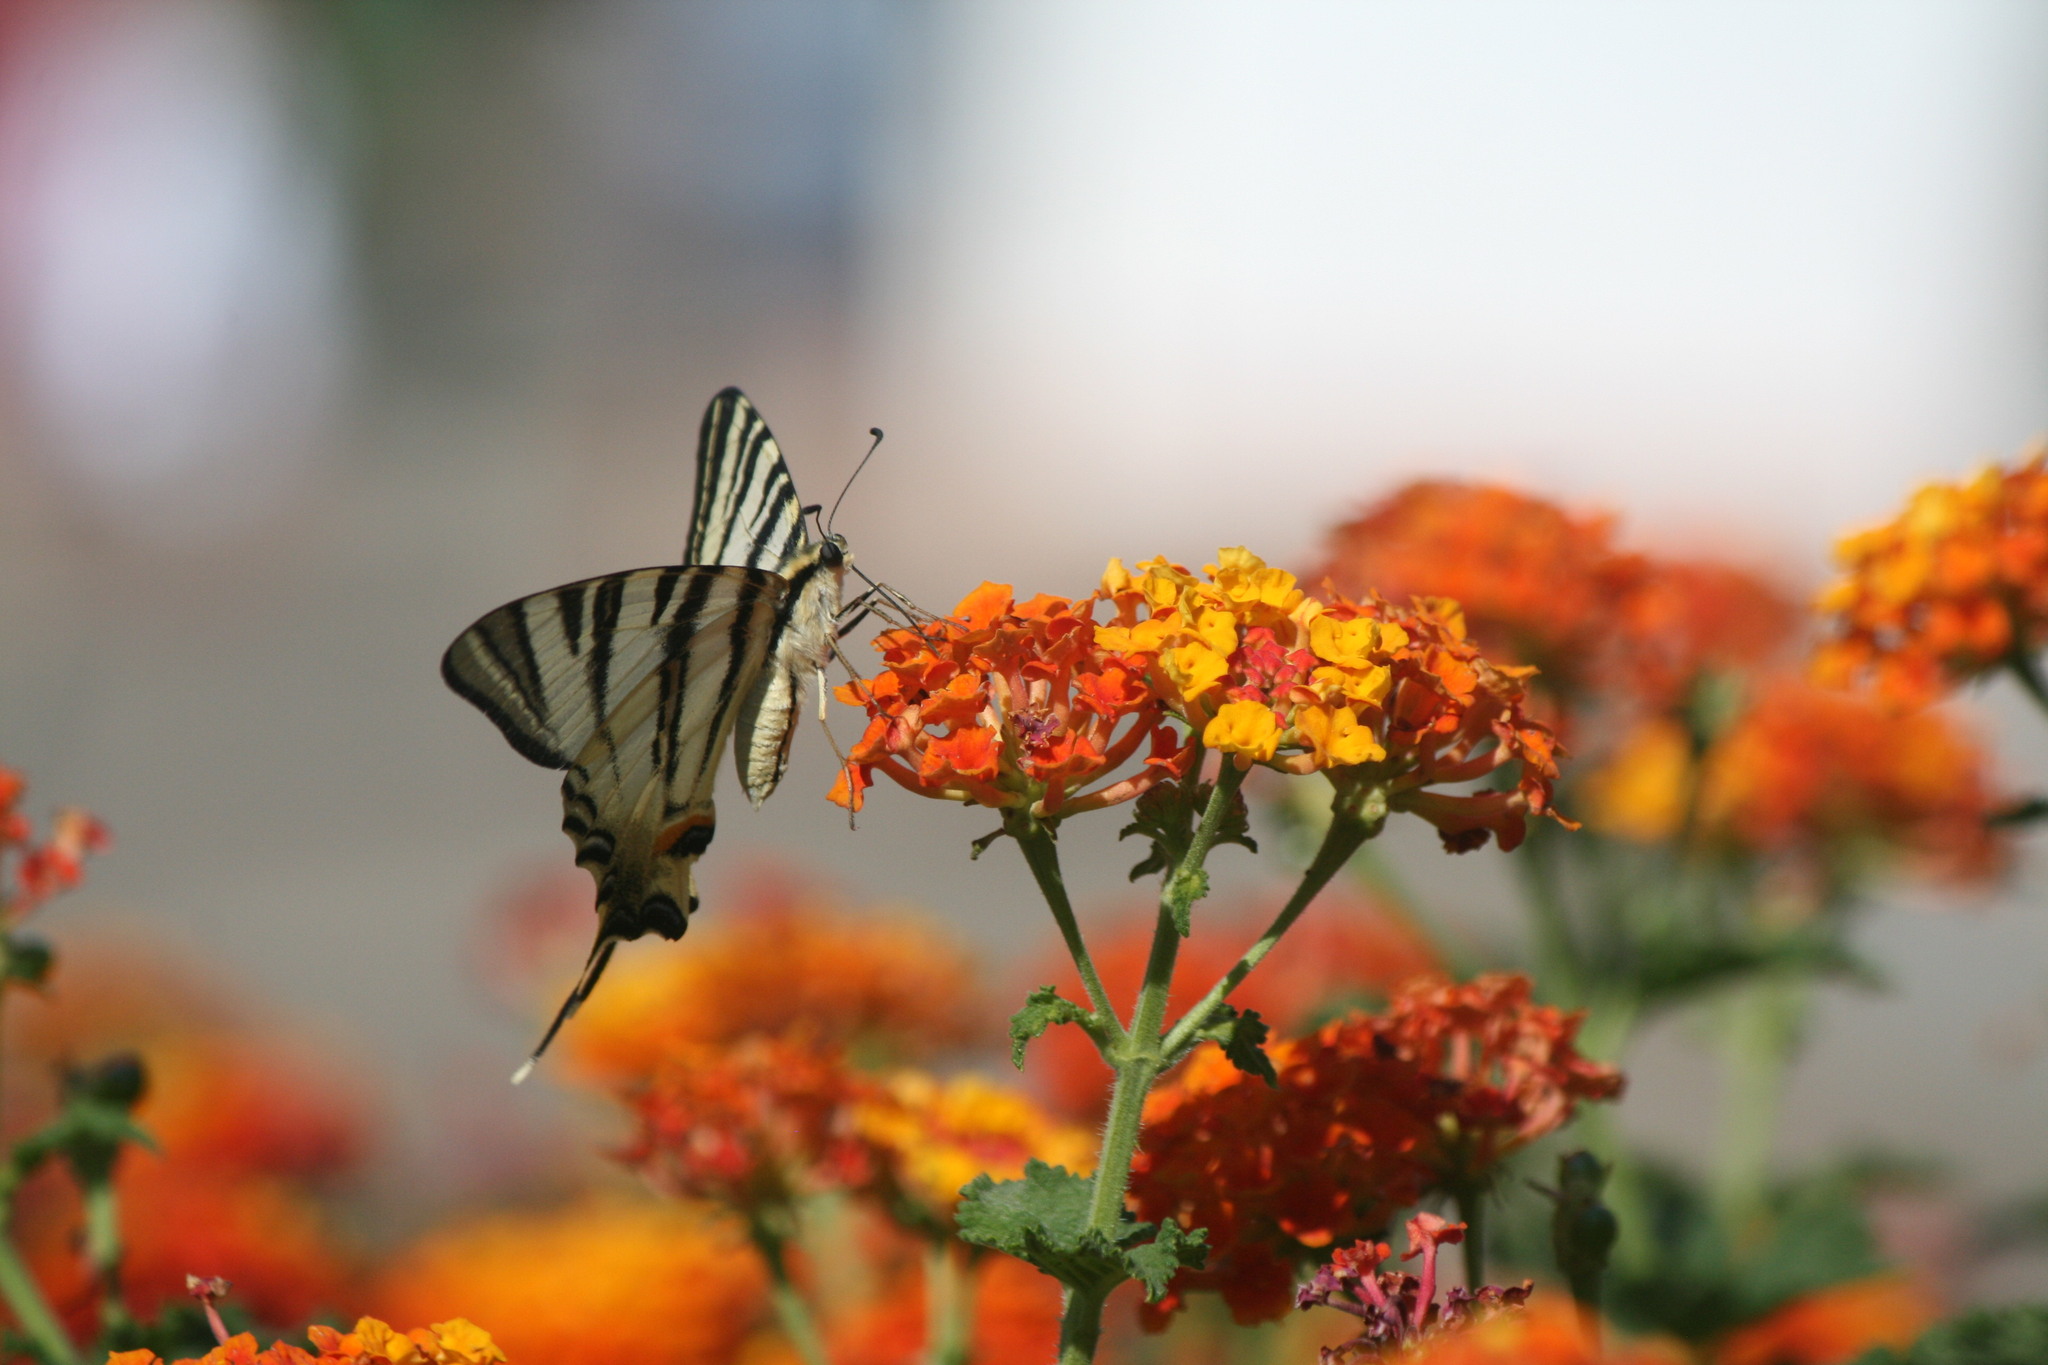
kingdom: Animalia
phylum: Arthropoda
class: Insecta
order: Lepidoptera
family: Papilionidae
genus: Iphiclides
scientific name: Iphiclides podalirius
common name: Scarce swallowtail
